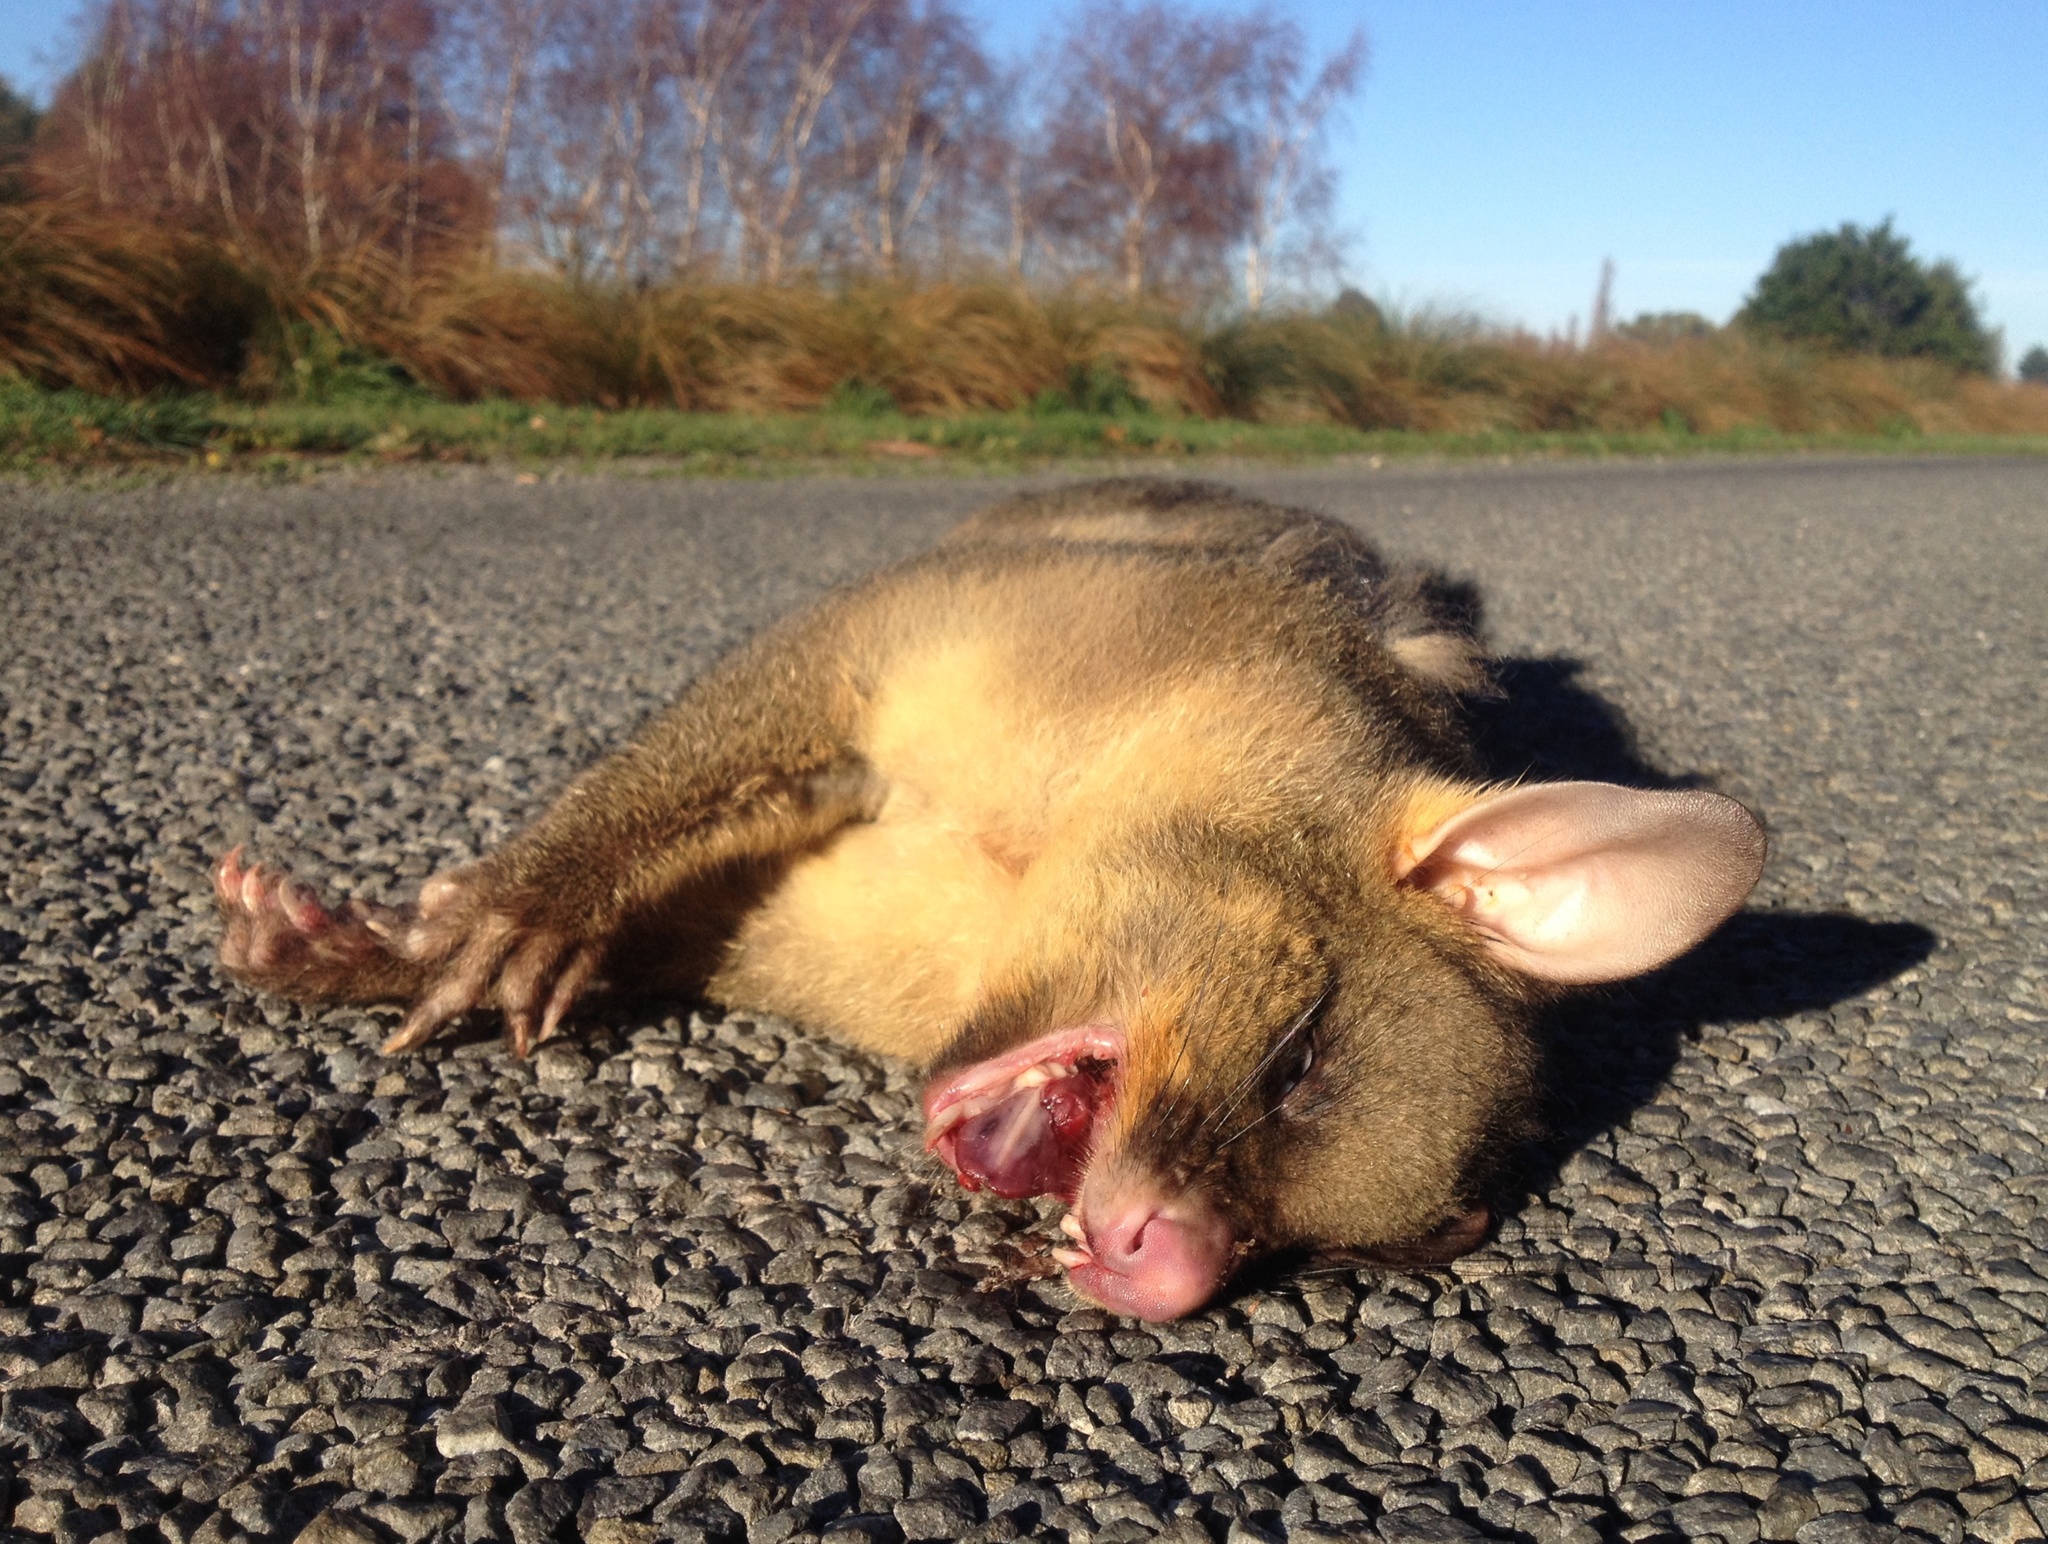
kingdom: Animalia
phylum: Chordata
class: Mammalia
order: Diprotodontia
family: Phalangeridae
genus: Trichosurus
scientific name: Trichosurus vulpecula
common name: Common brushtail
